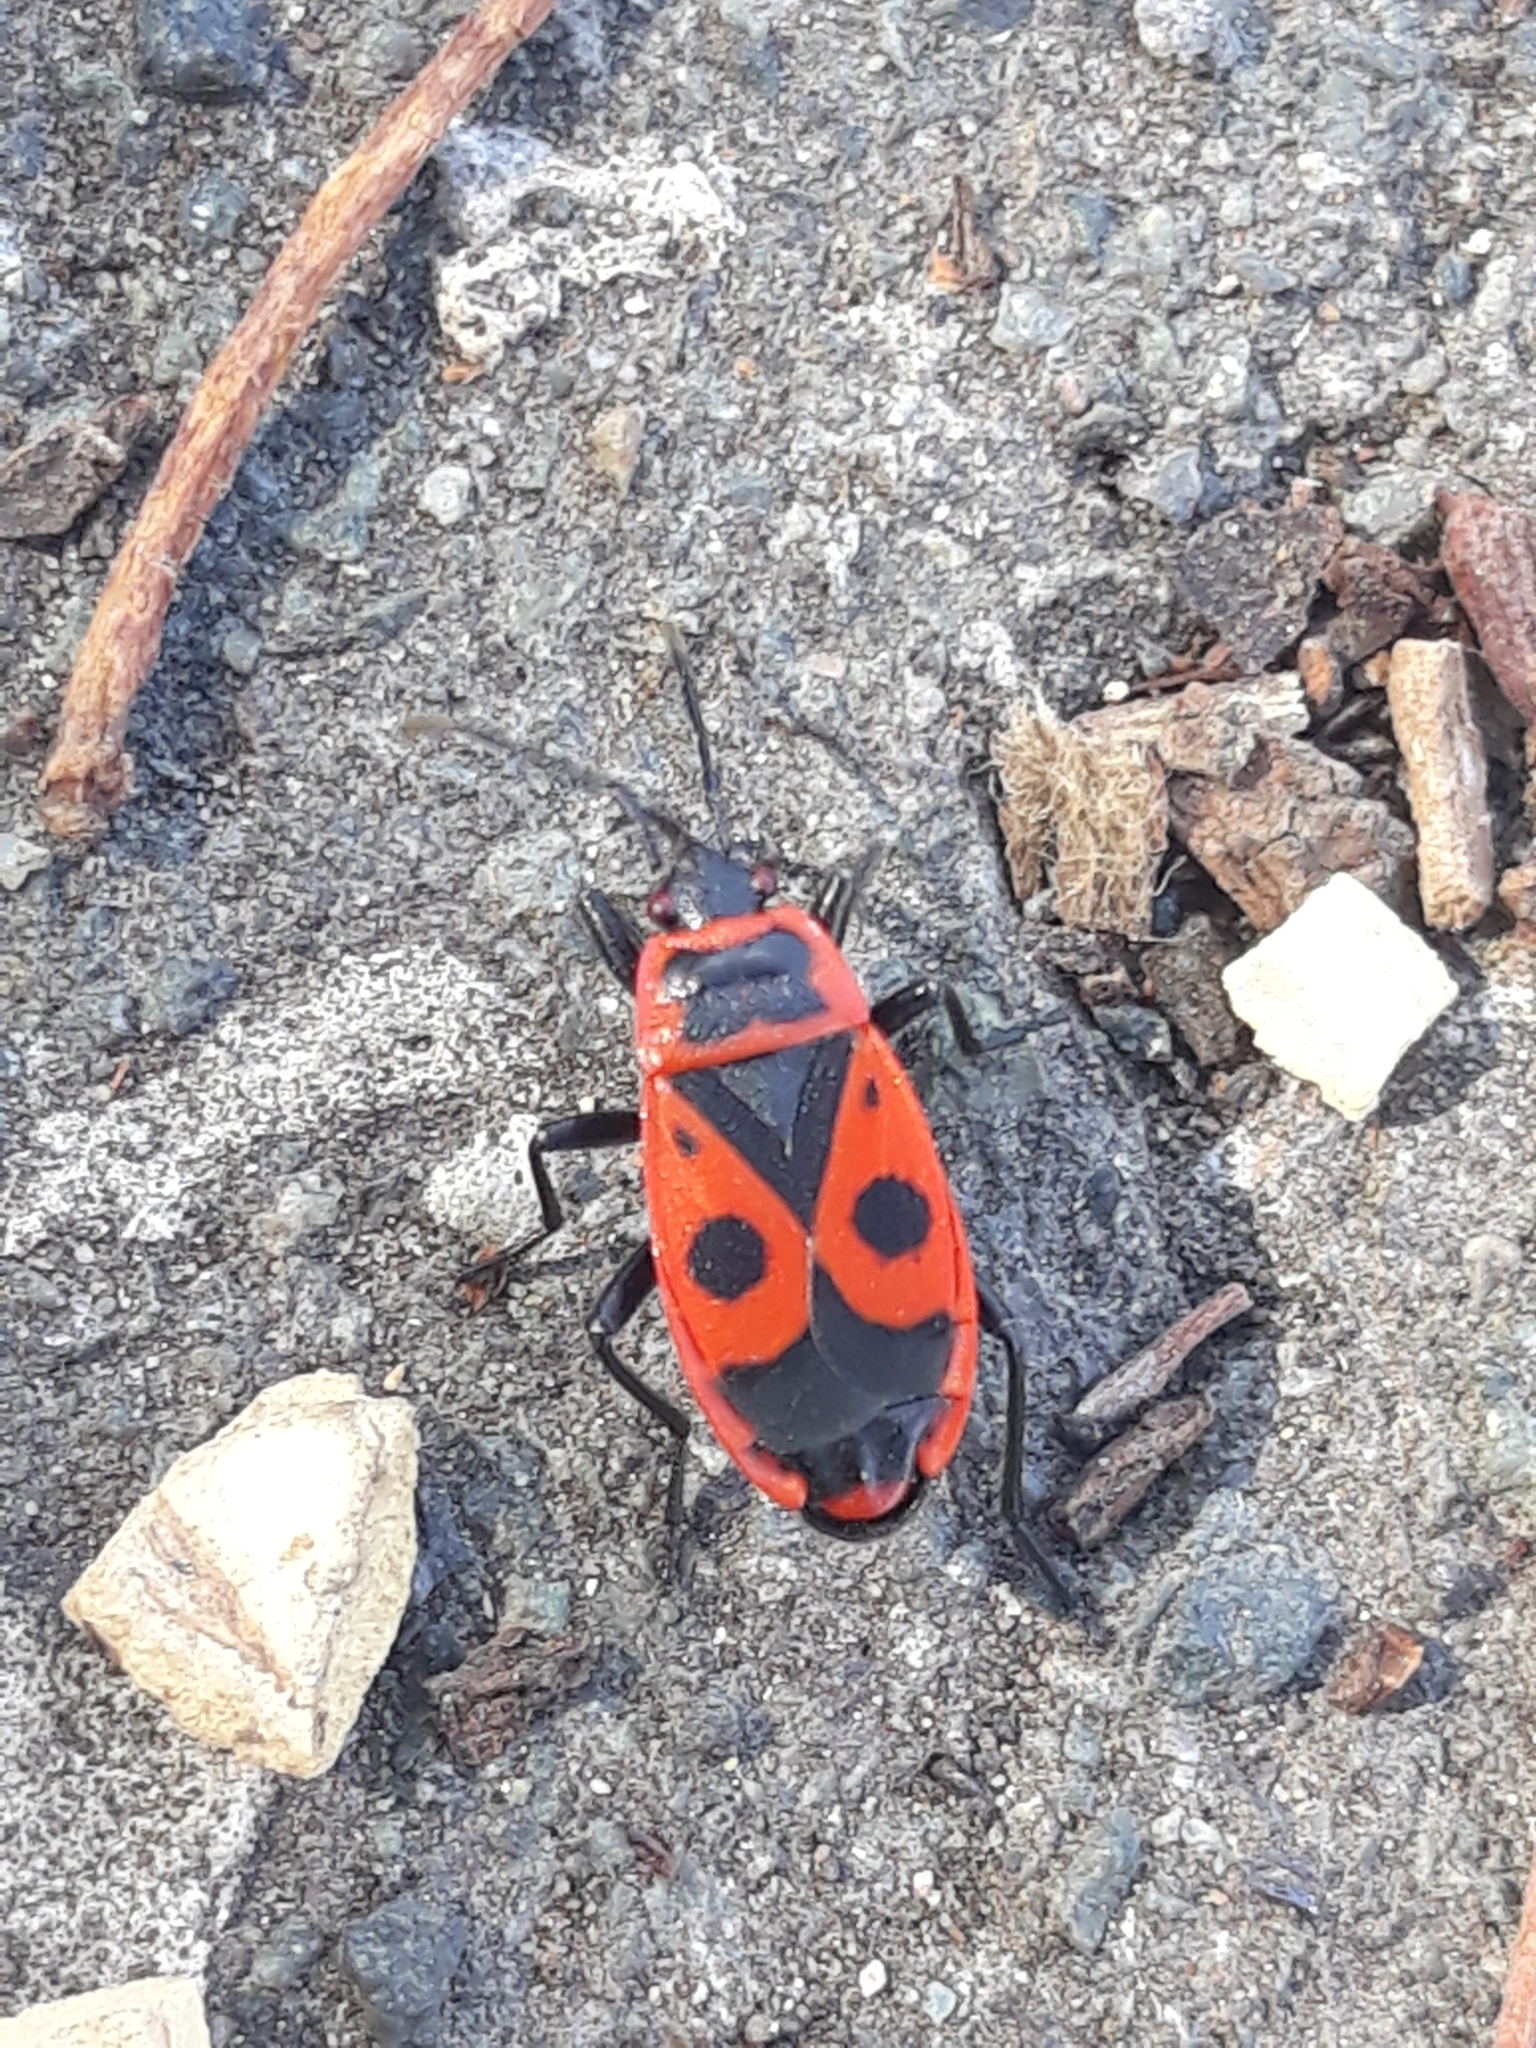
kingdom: Animalia
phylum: Arthropoda
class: Insecta
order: Hemiptera
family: Pyrrhocoridae
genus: Pyrrhocoris
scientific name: Pyrrhocoris apterus
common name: Firebug
